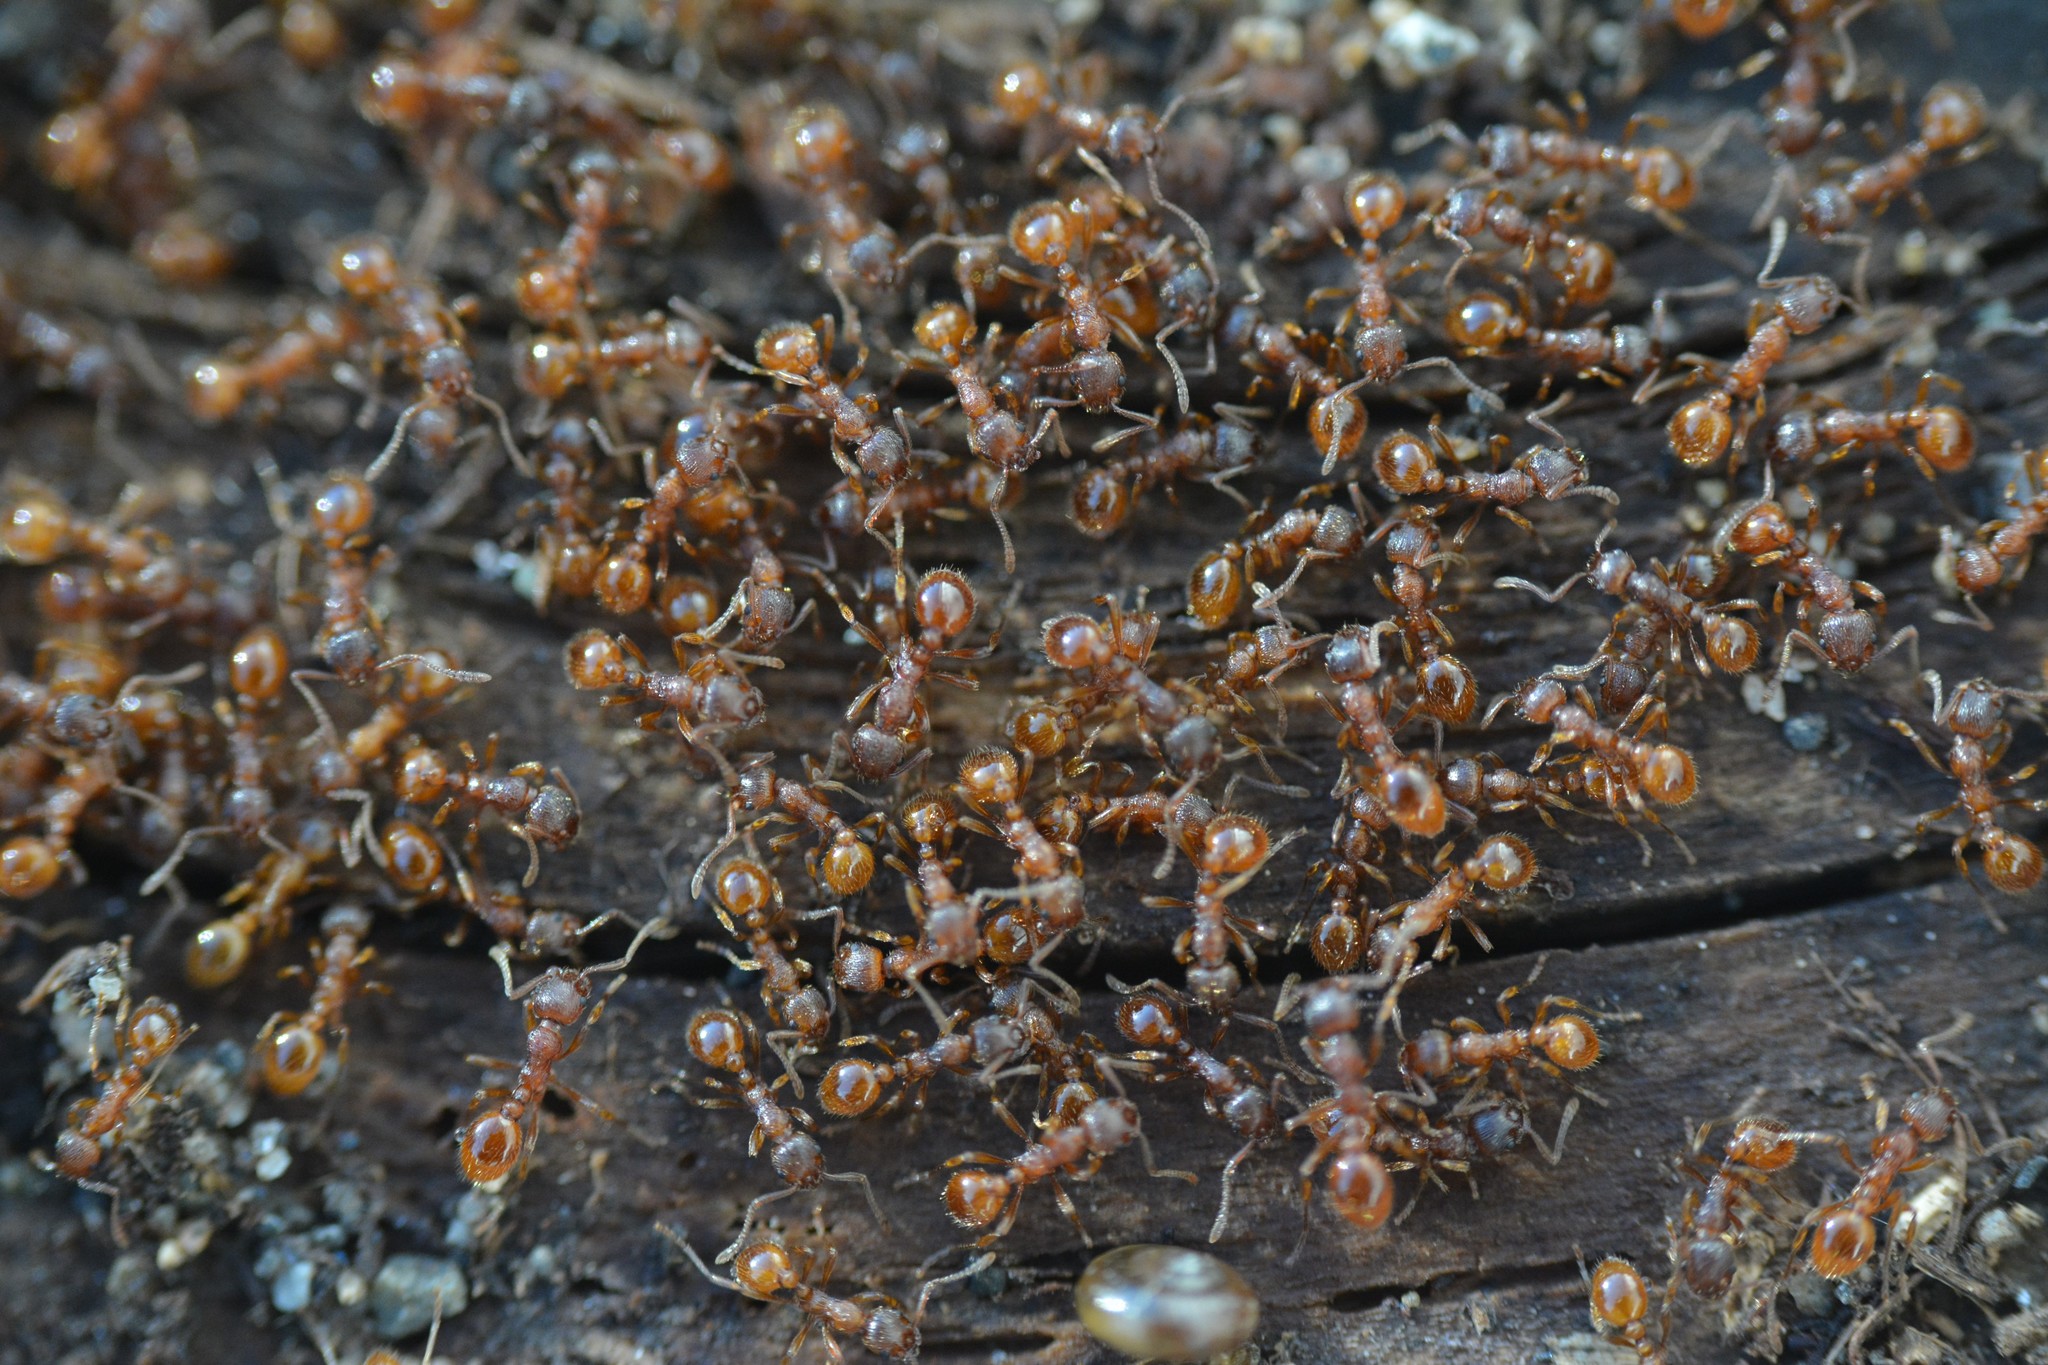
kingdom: Animalia
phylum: Arthropoda
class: Insecta
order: Hymenoptera
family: Formicidae
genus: Myrmica
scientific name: Myrmica rubra
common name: European fire ant
